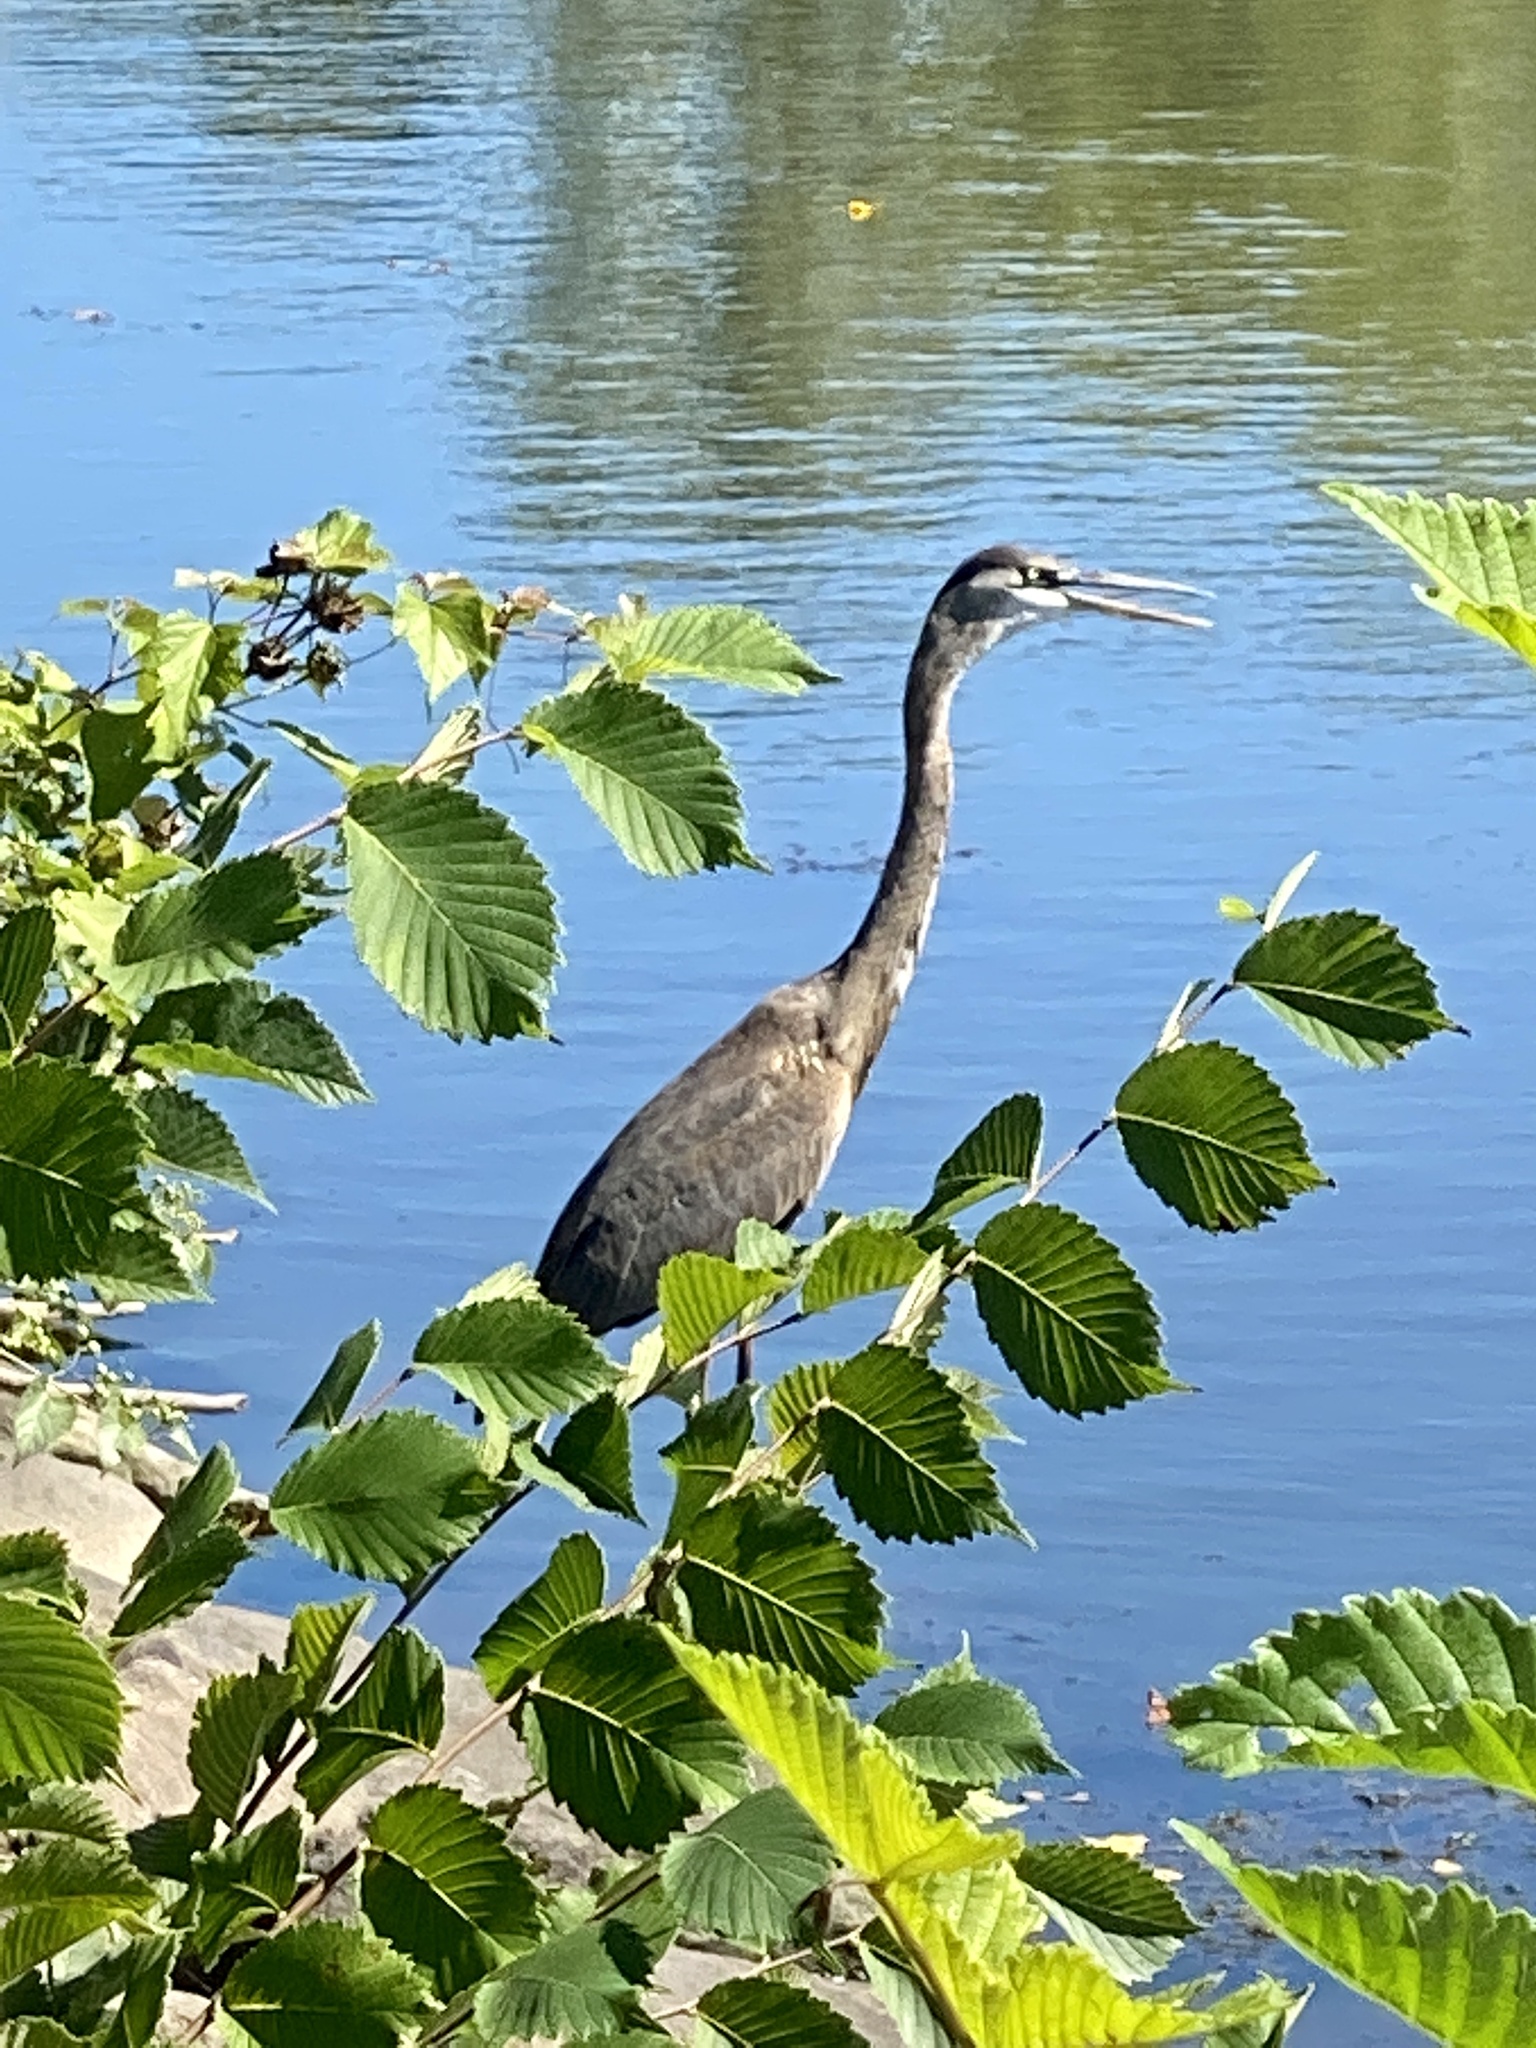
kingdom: Animalia
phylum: Chordata
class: Aves
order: Pelecaniformes
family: Ardeidae
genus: Ardea
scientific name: Ardea herodias
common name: Great blue heron
